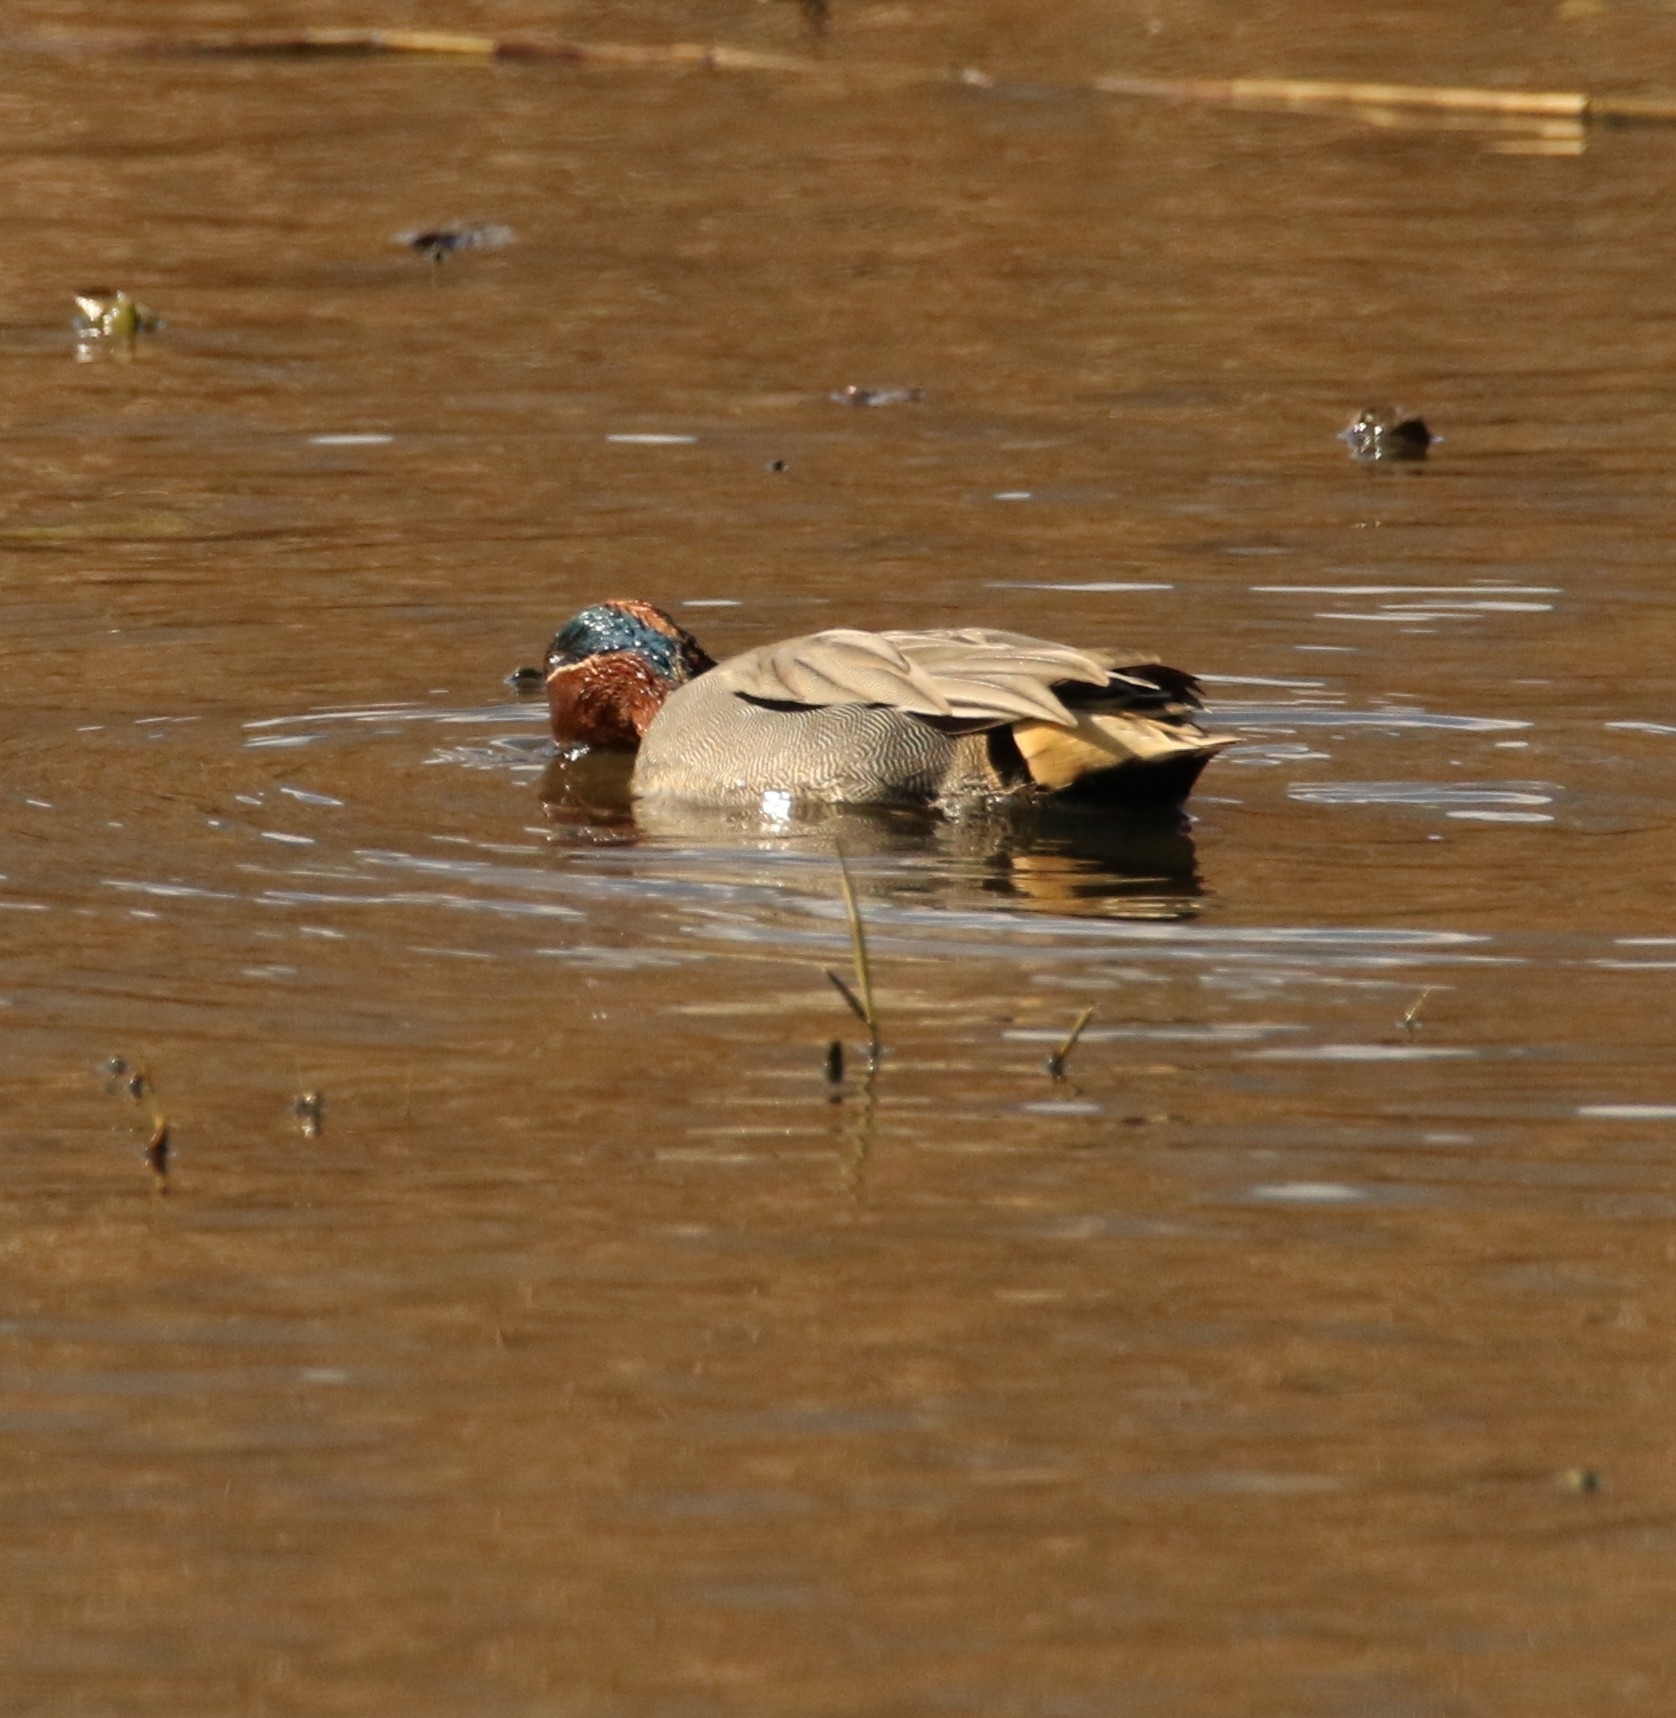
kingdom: Animalia
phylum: Chordata
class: Aves
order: Anseriformes
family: Anatidae
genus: Anas
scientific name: Anas crecca
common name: Eurasian teal
